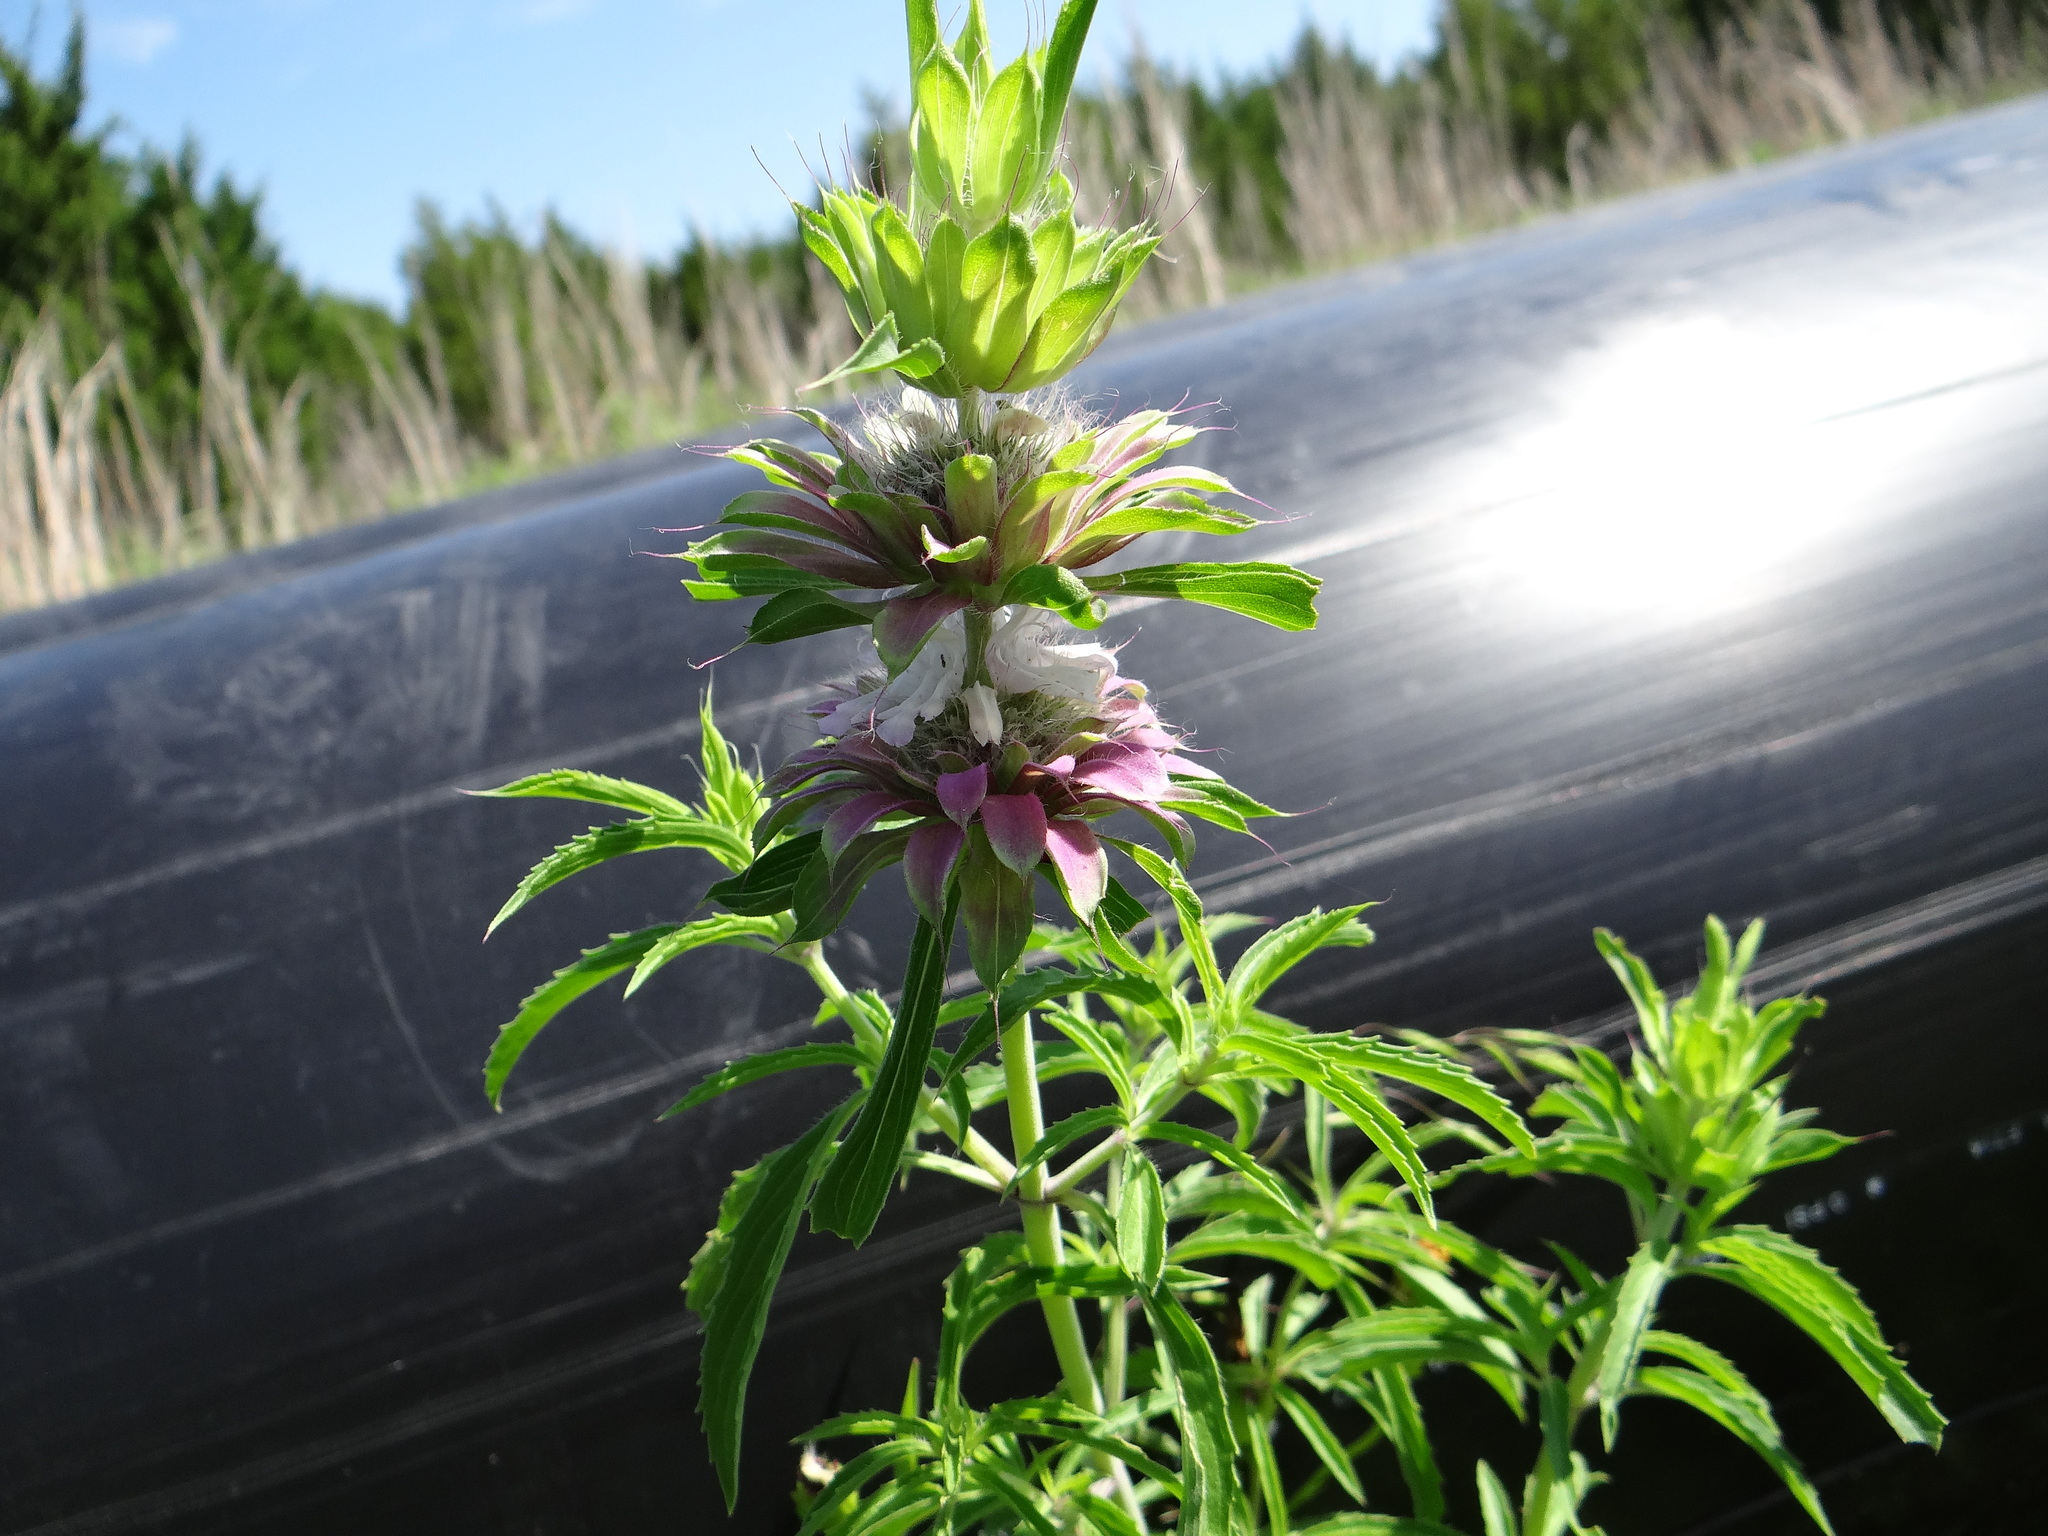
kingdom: Plantae
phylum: Tracheophyta
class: Magnoliopsida
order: Lamiales
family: Lamiaceae
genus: Monarda
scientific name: Monarda citriodora
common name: Lemon beebalm
